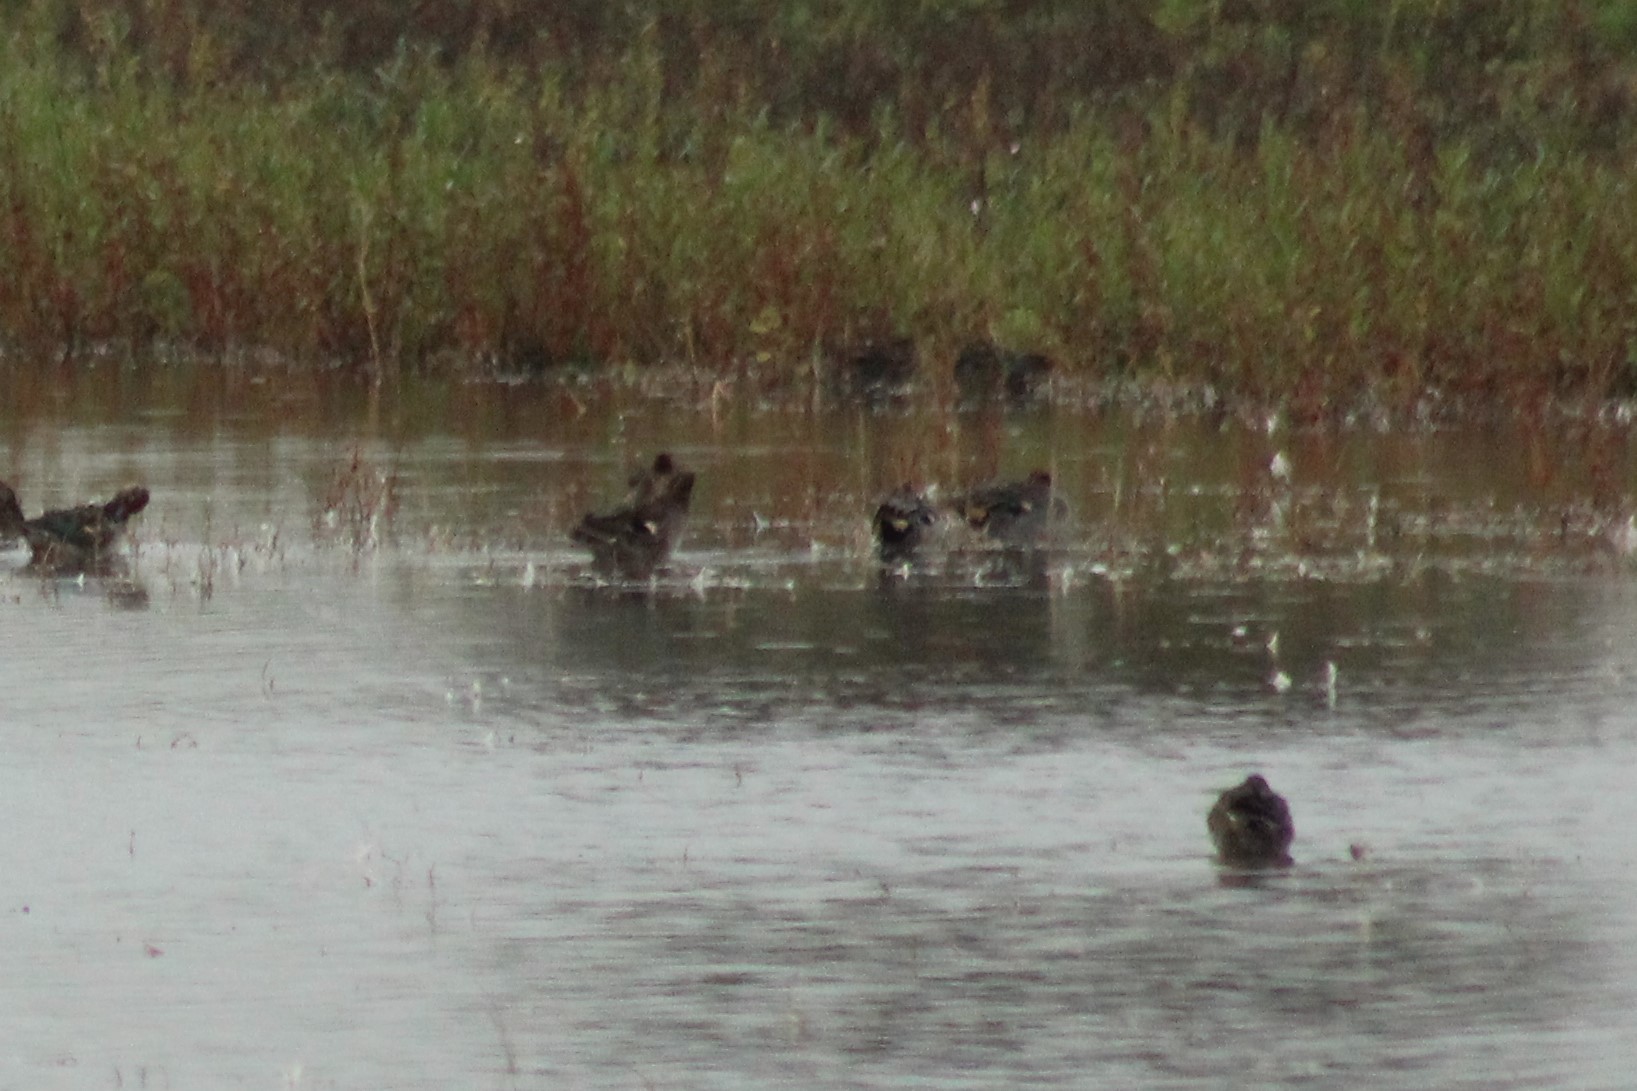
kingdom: Animalia
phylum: Chordata
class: Aves
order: Anseriformes
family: Anatidae
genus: Anas
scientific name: Anas crecca
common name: Eurasian teal
